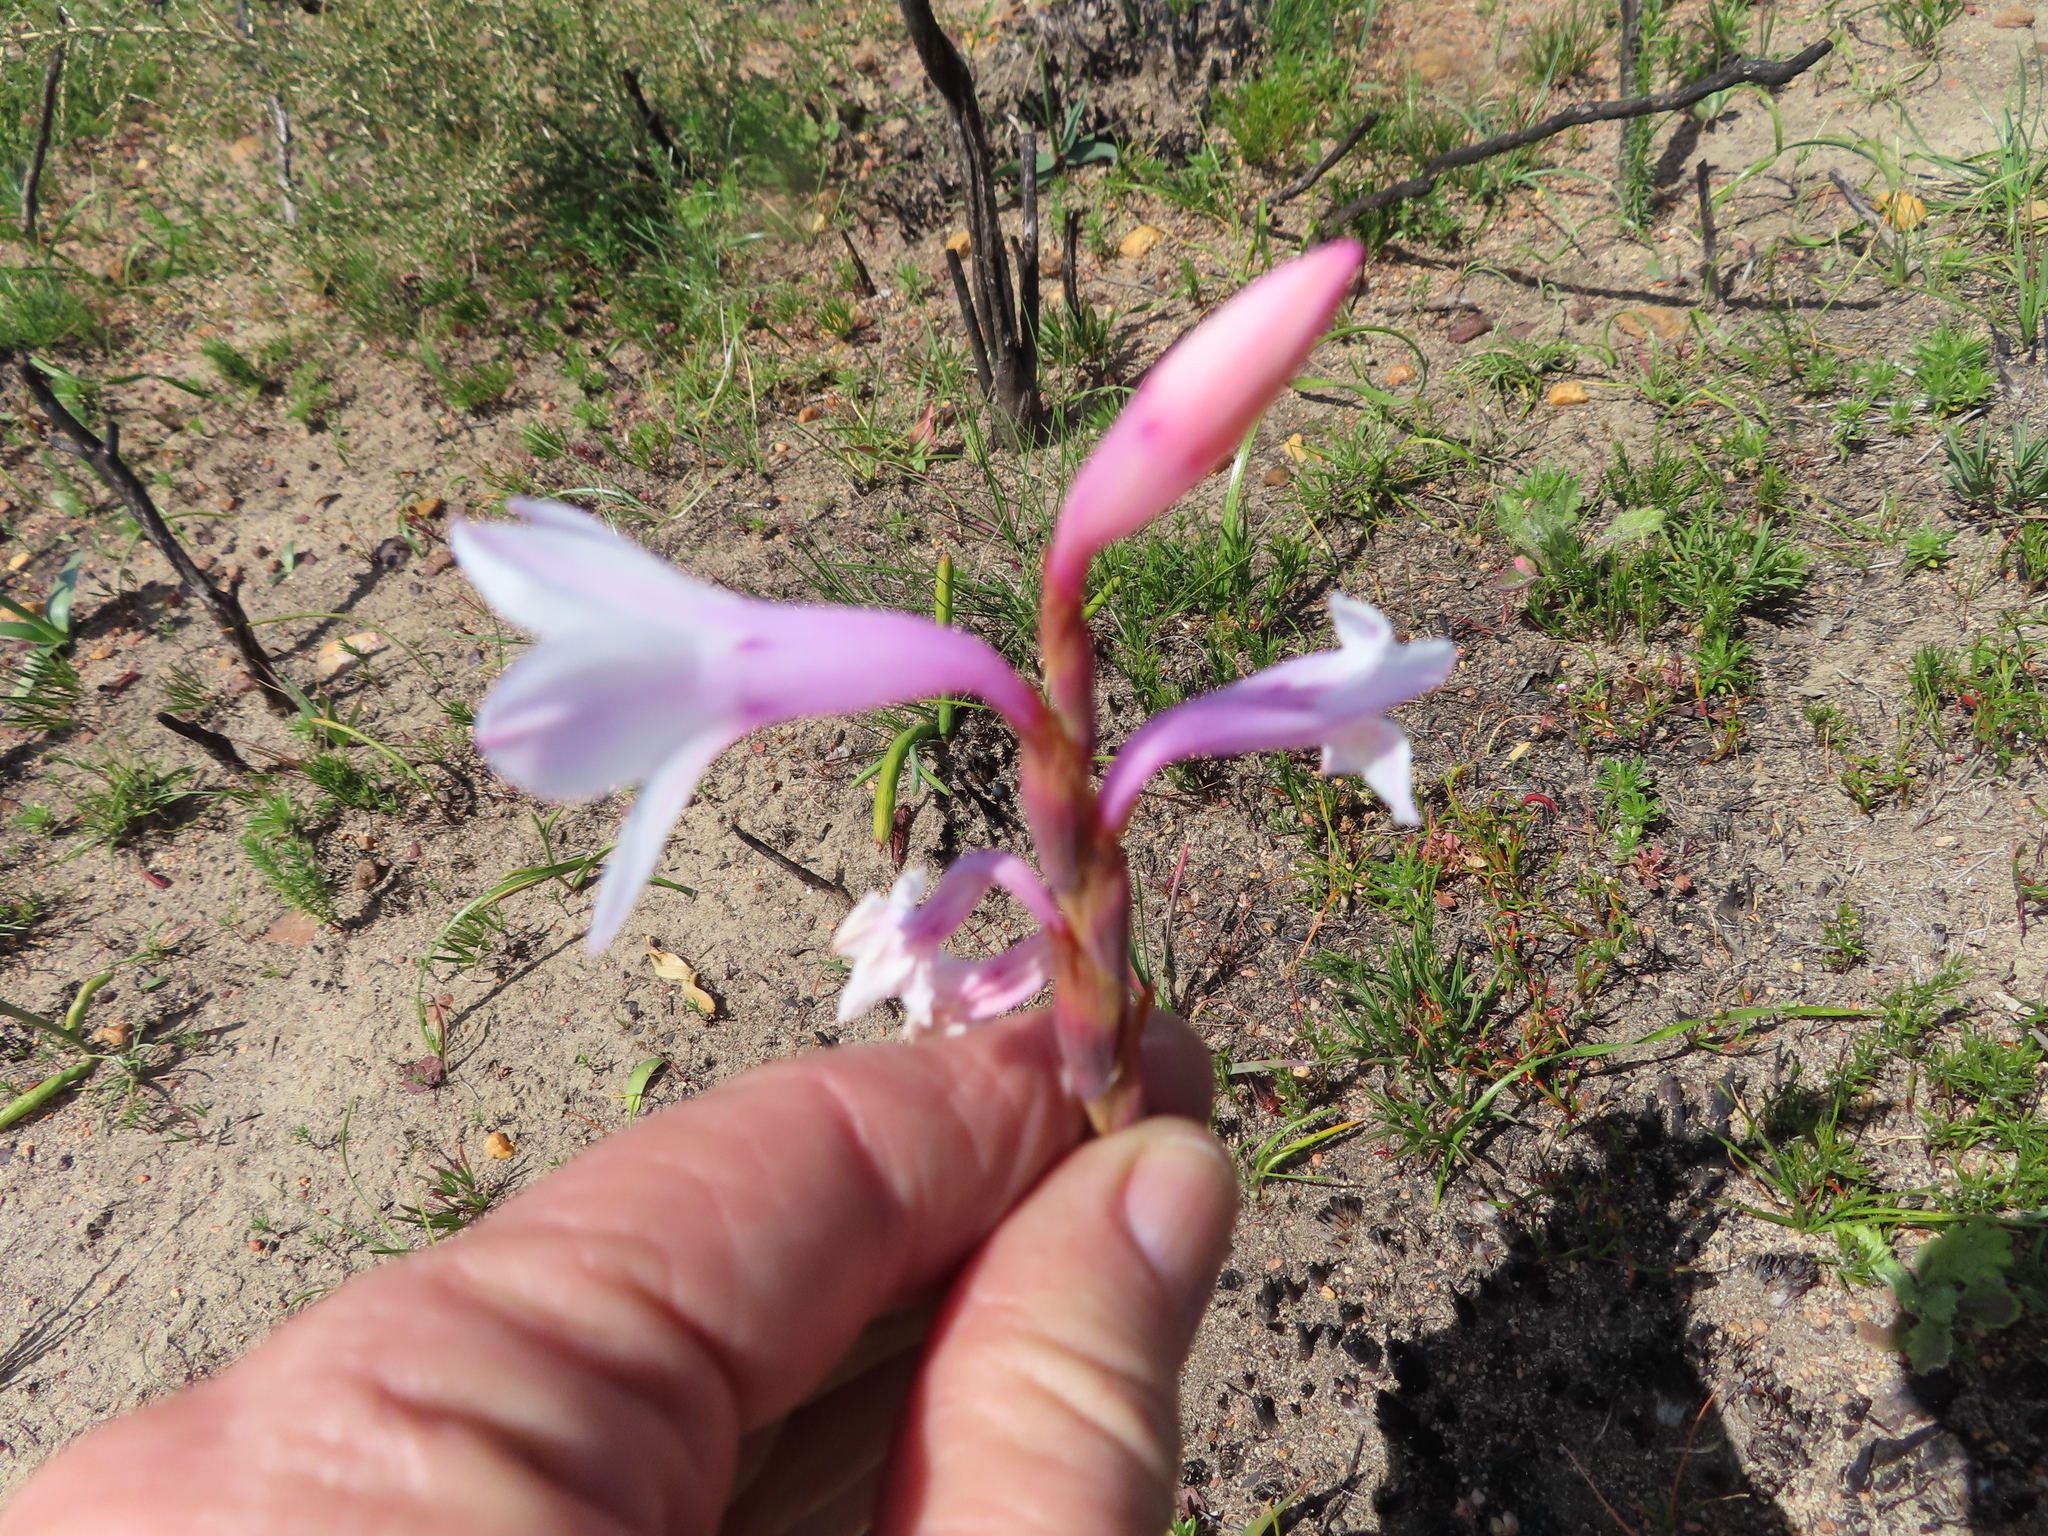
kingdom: Plantae
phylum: Tracheophyta
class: Liliopsida
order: Asparagales
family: Iridaceae
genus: Watsonia
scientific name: Watsonia laccata
